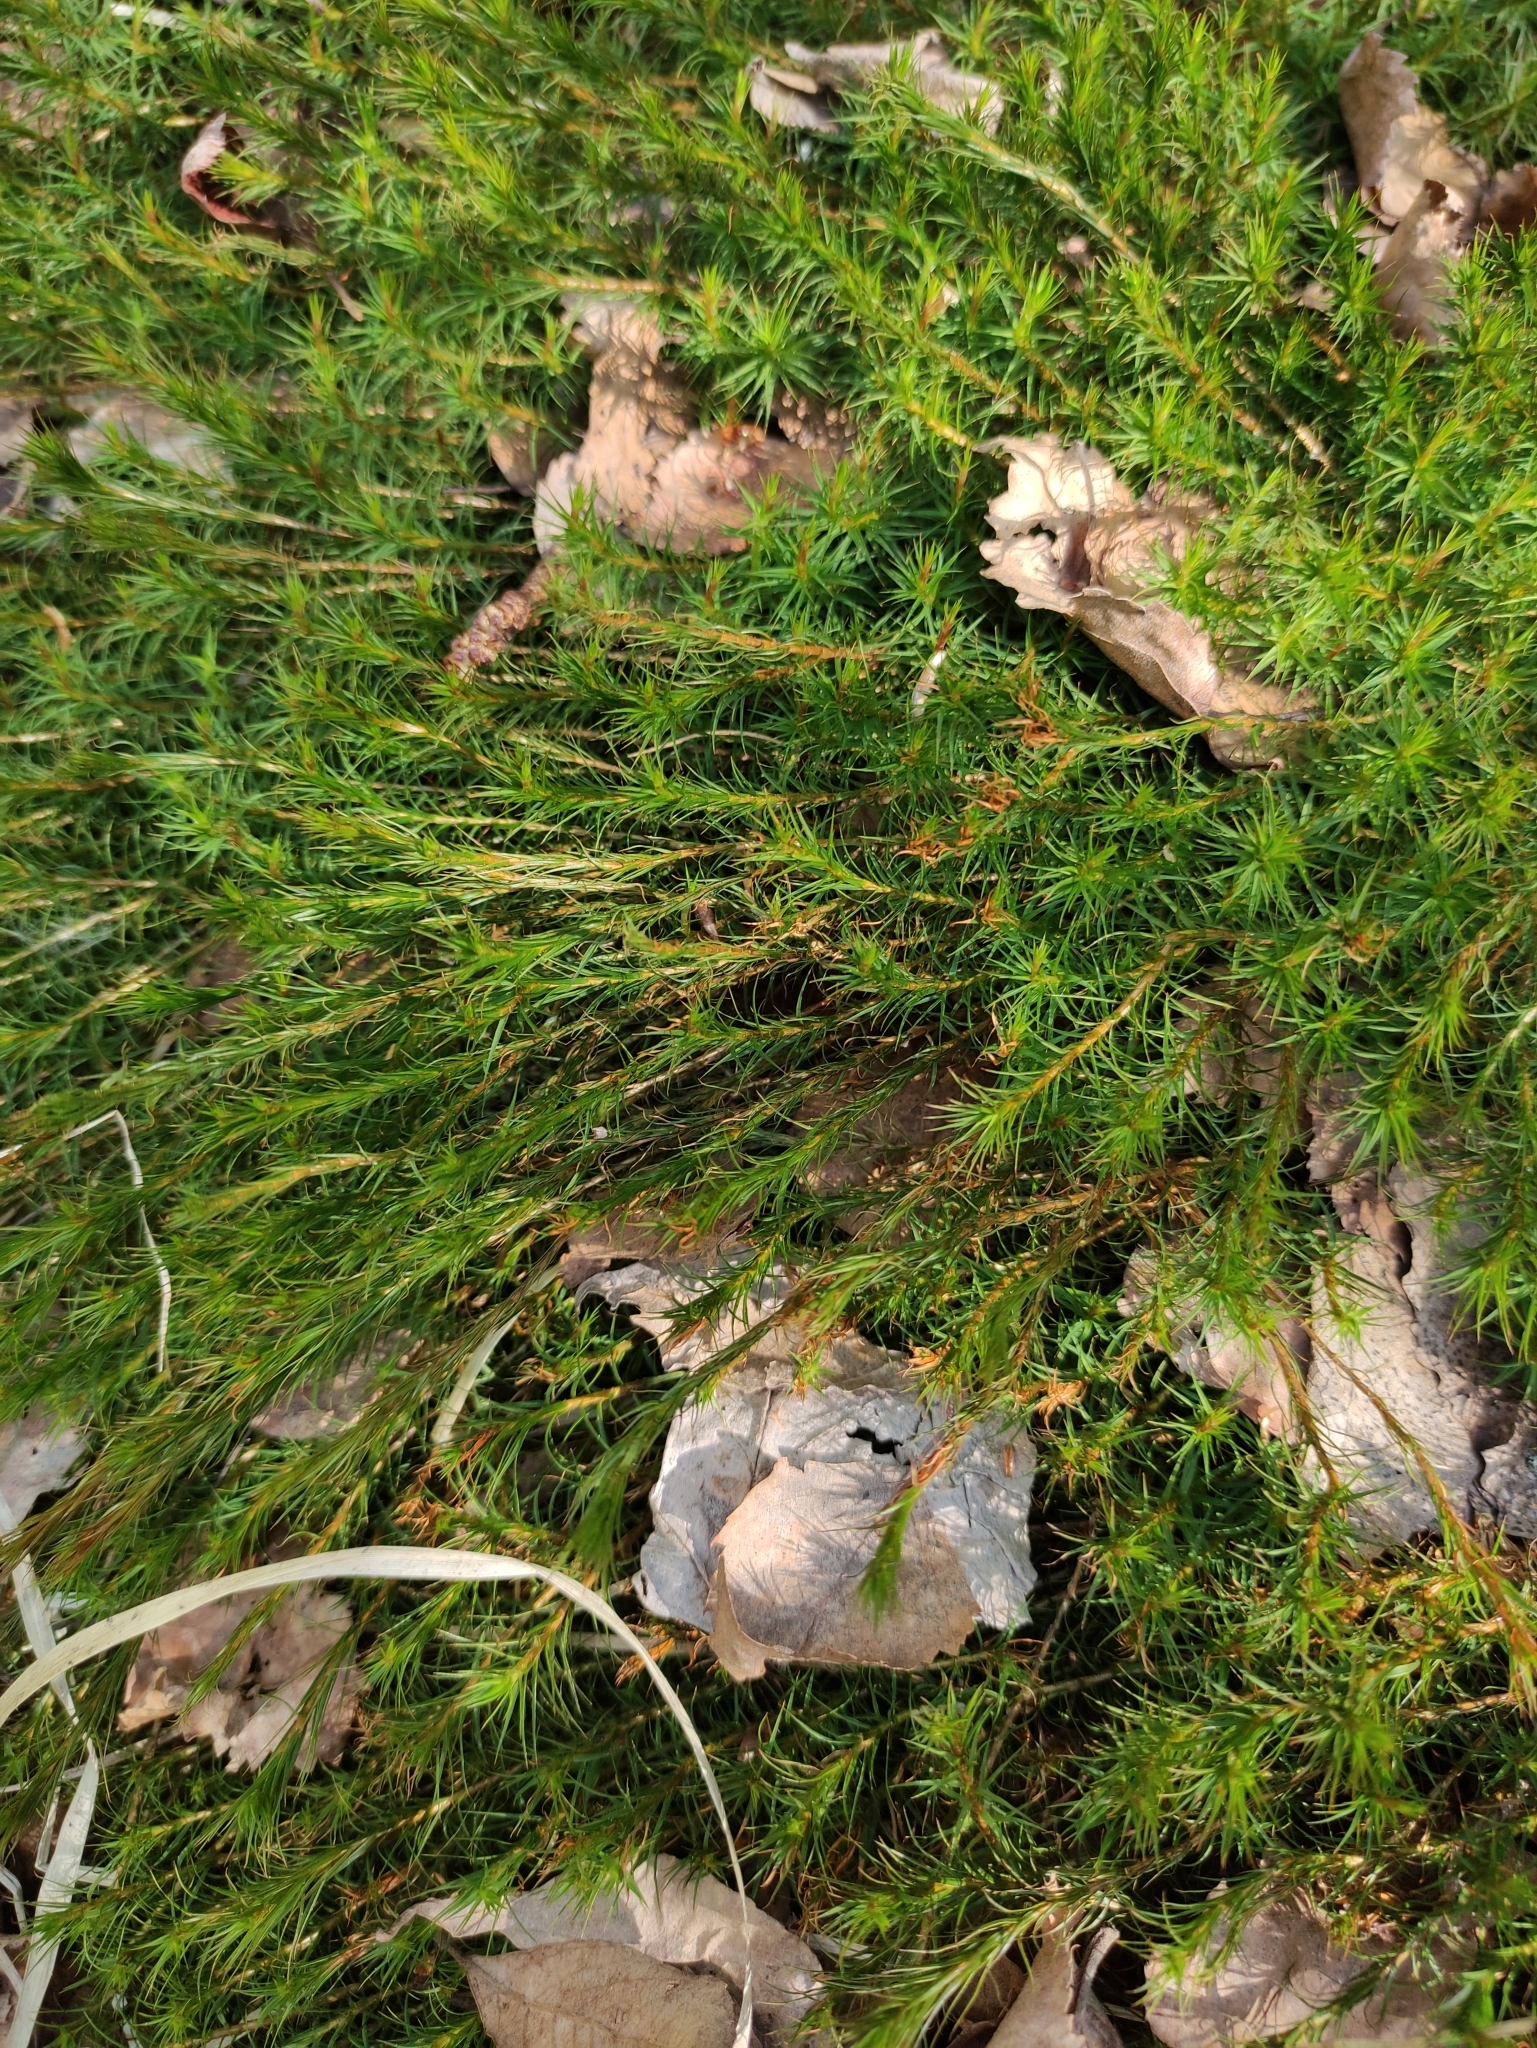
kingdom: Plantae
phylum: Bryophyta
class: Polytrichopsida
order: Polytrichales
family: Polytrichaceae
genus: Polytrichum
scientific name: Polytrichum commune
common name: Common haircap
